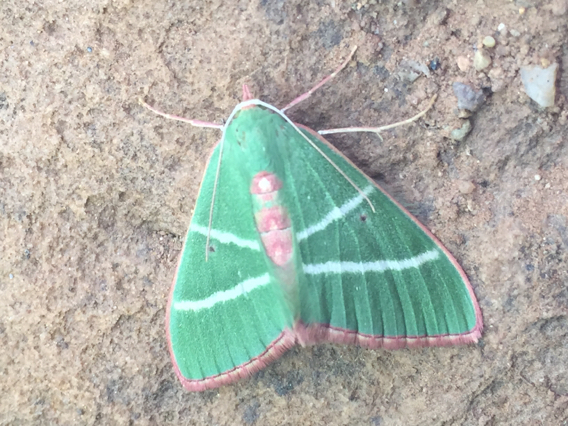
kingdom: Animalia
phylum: Arthropoda
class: Insecta
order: Lepidoptera
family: Geometridae
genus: Nemoria
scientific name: Nemoria obliqua
